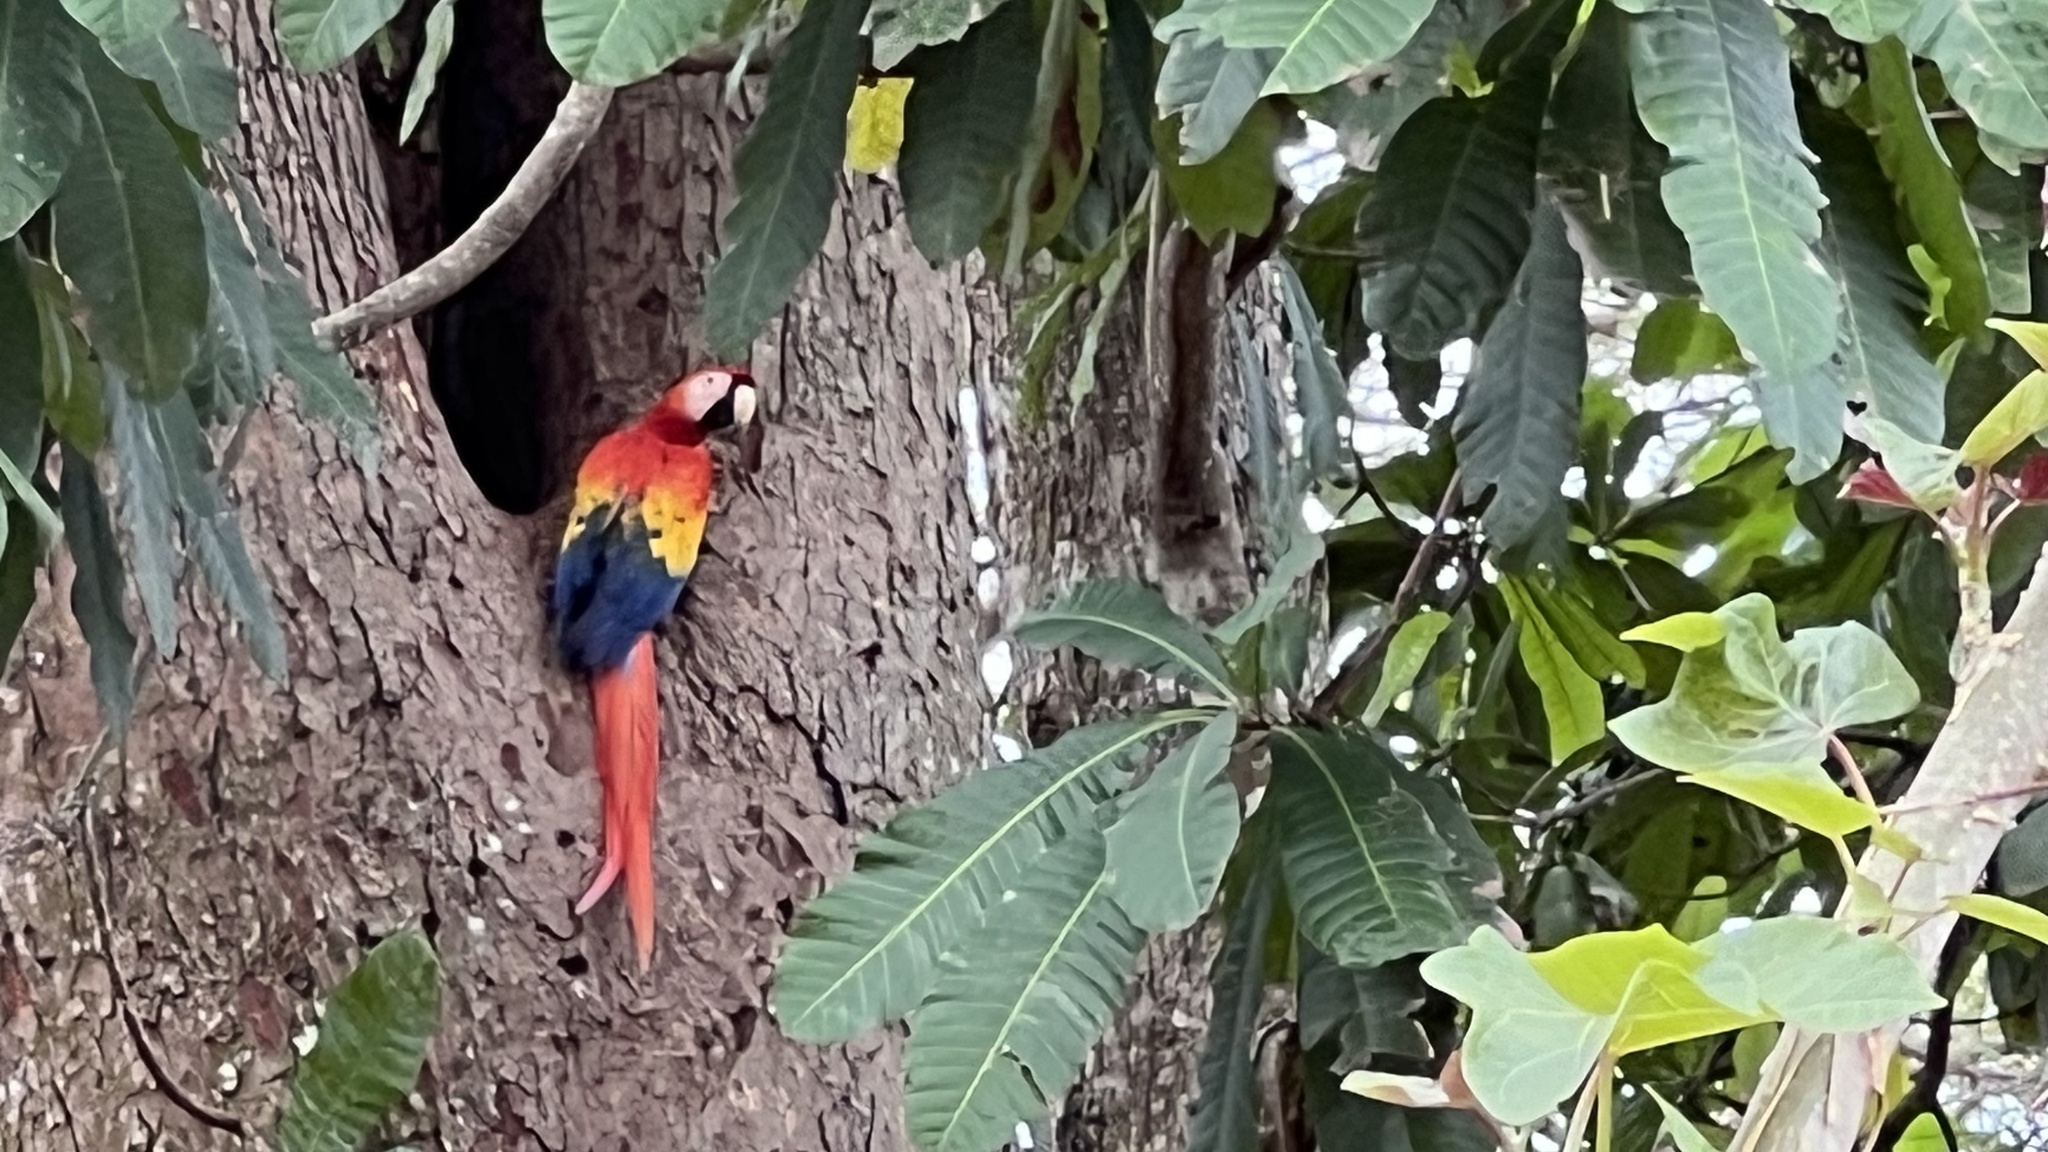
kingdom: Animalia
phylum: Chordata
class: Aves
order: Psittaciformes
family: Psittacidae
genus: Ara
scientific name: Ara macao
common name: Scarlet macaw
